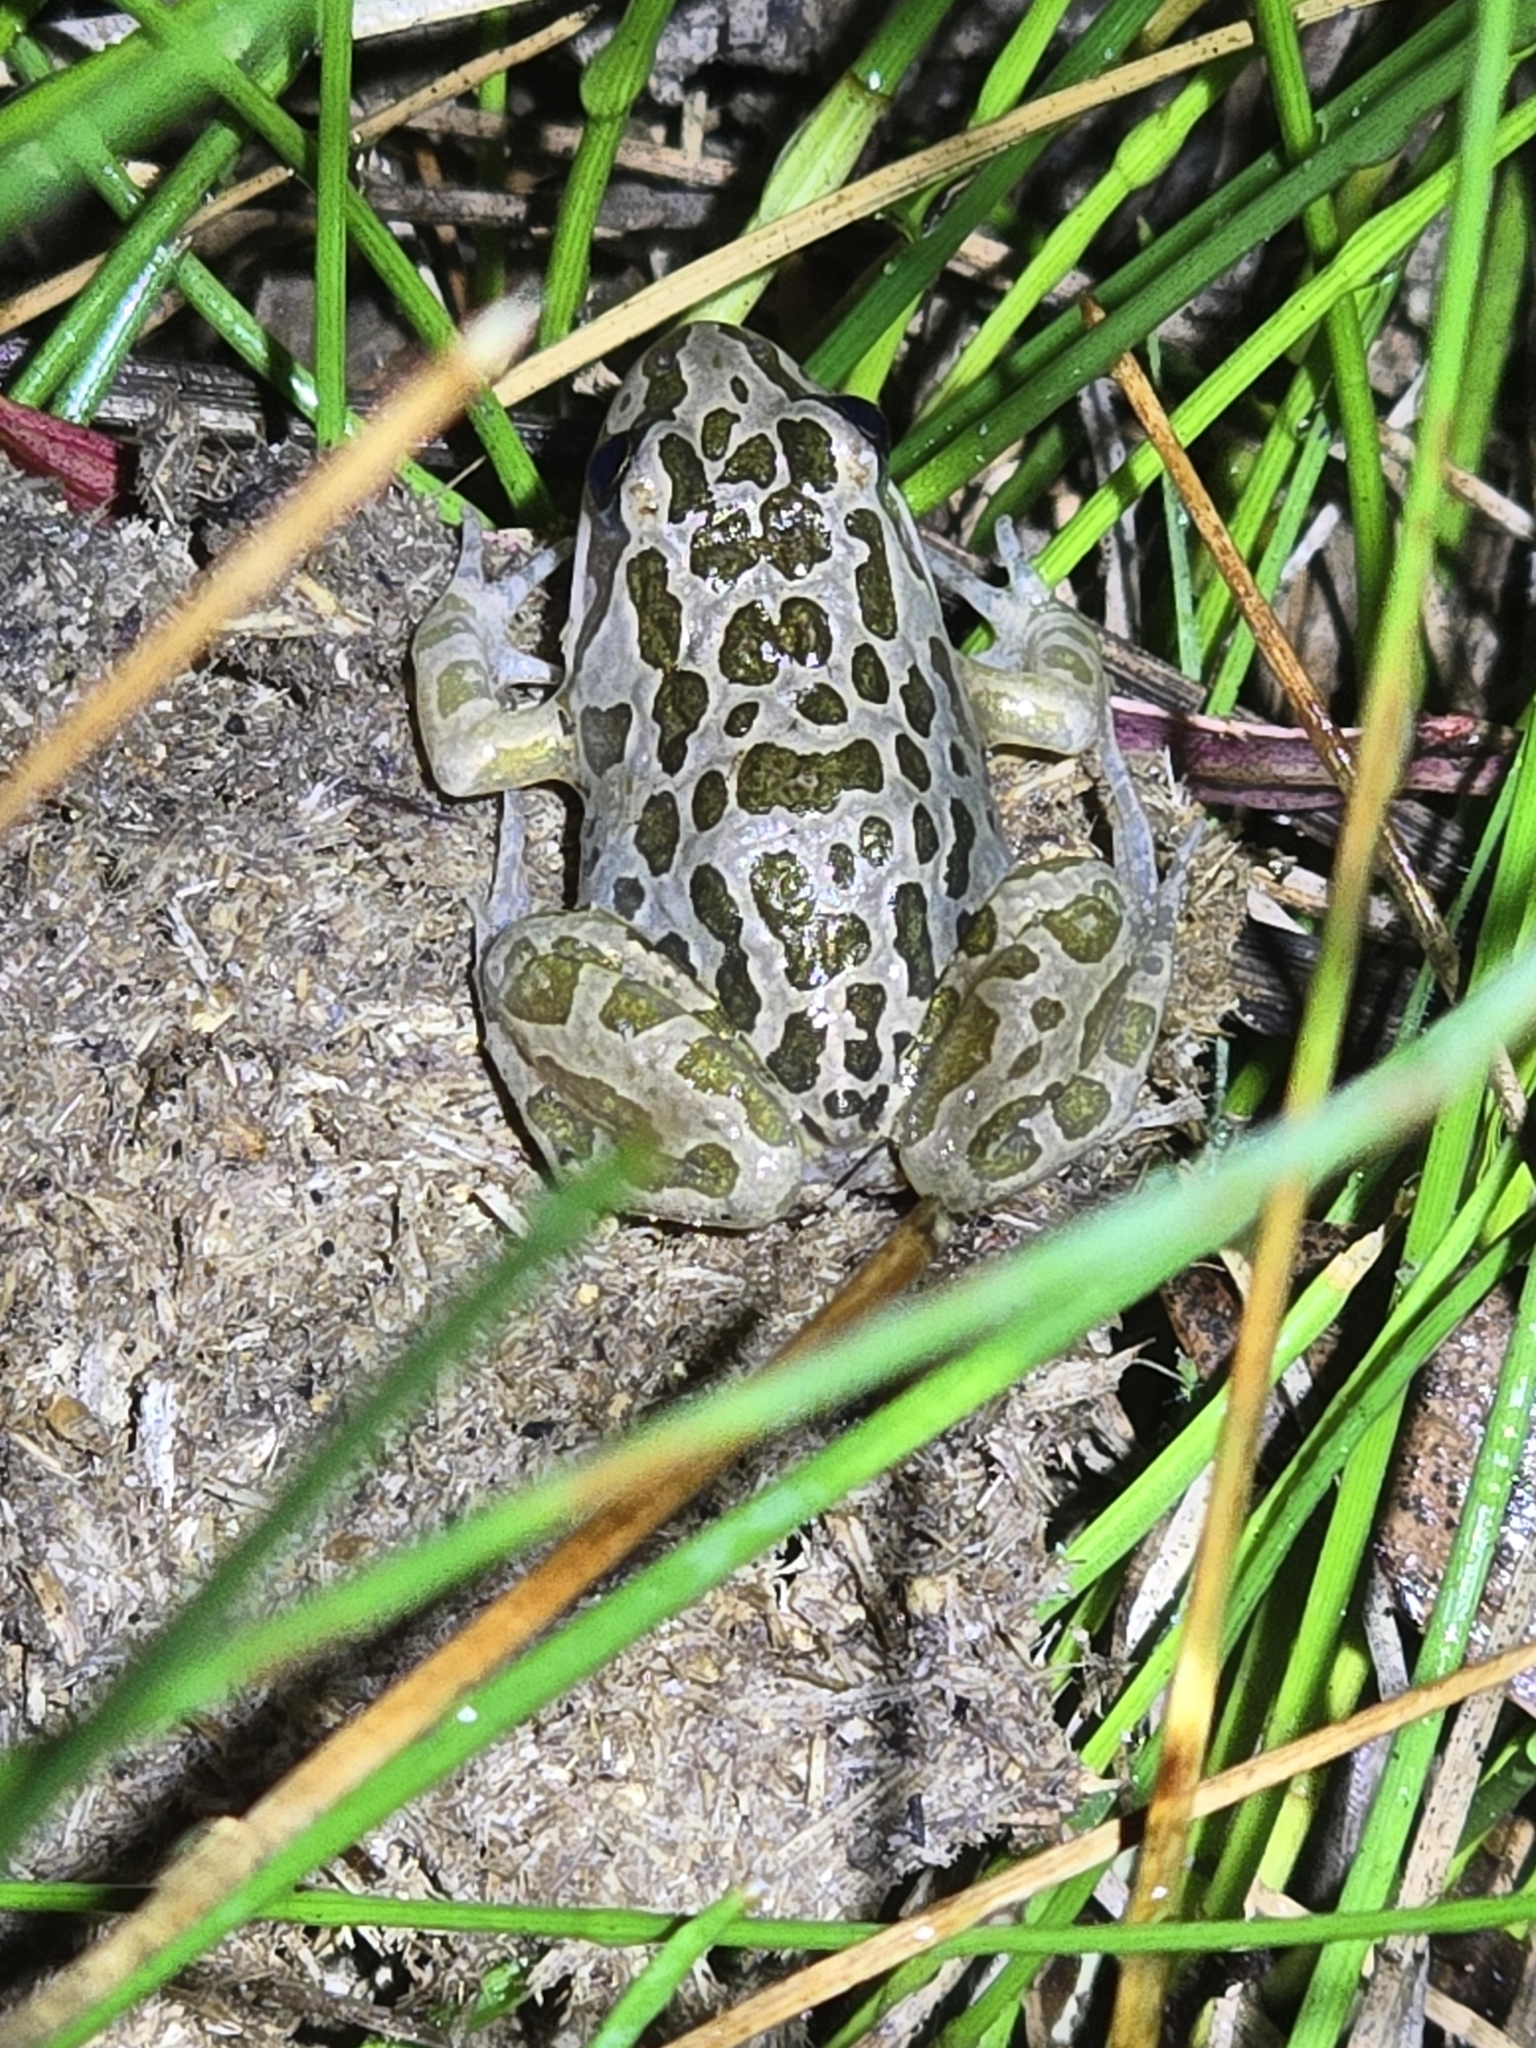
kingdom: Animalia
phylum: Chordata
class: Amphibia
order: Anura
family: Limnodynastidae
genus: Limnodynastes
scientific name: Limnodynastes tasmaniensis
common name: Spotted marsh frog
